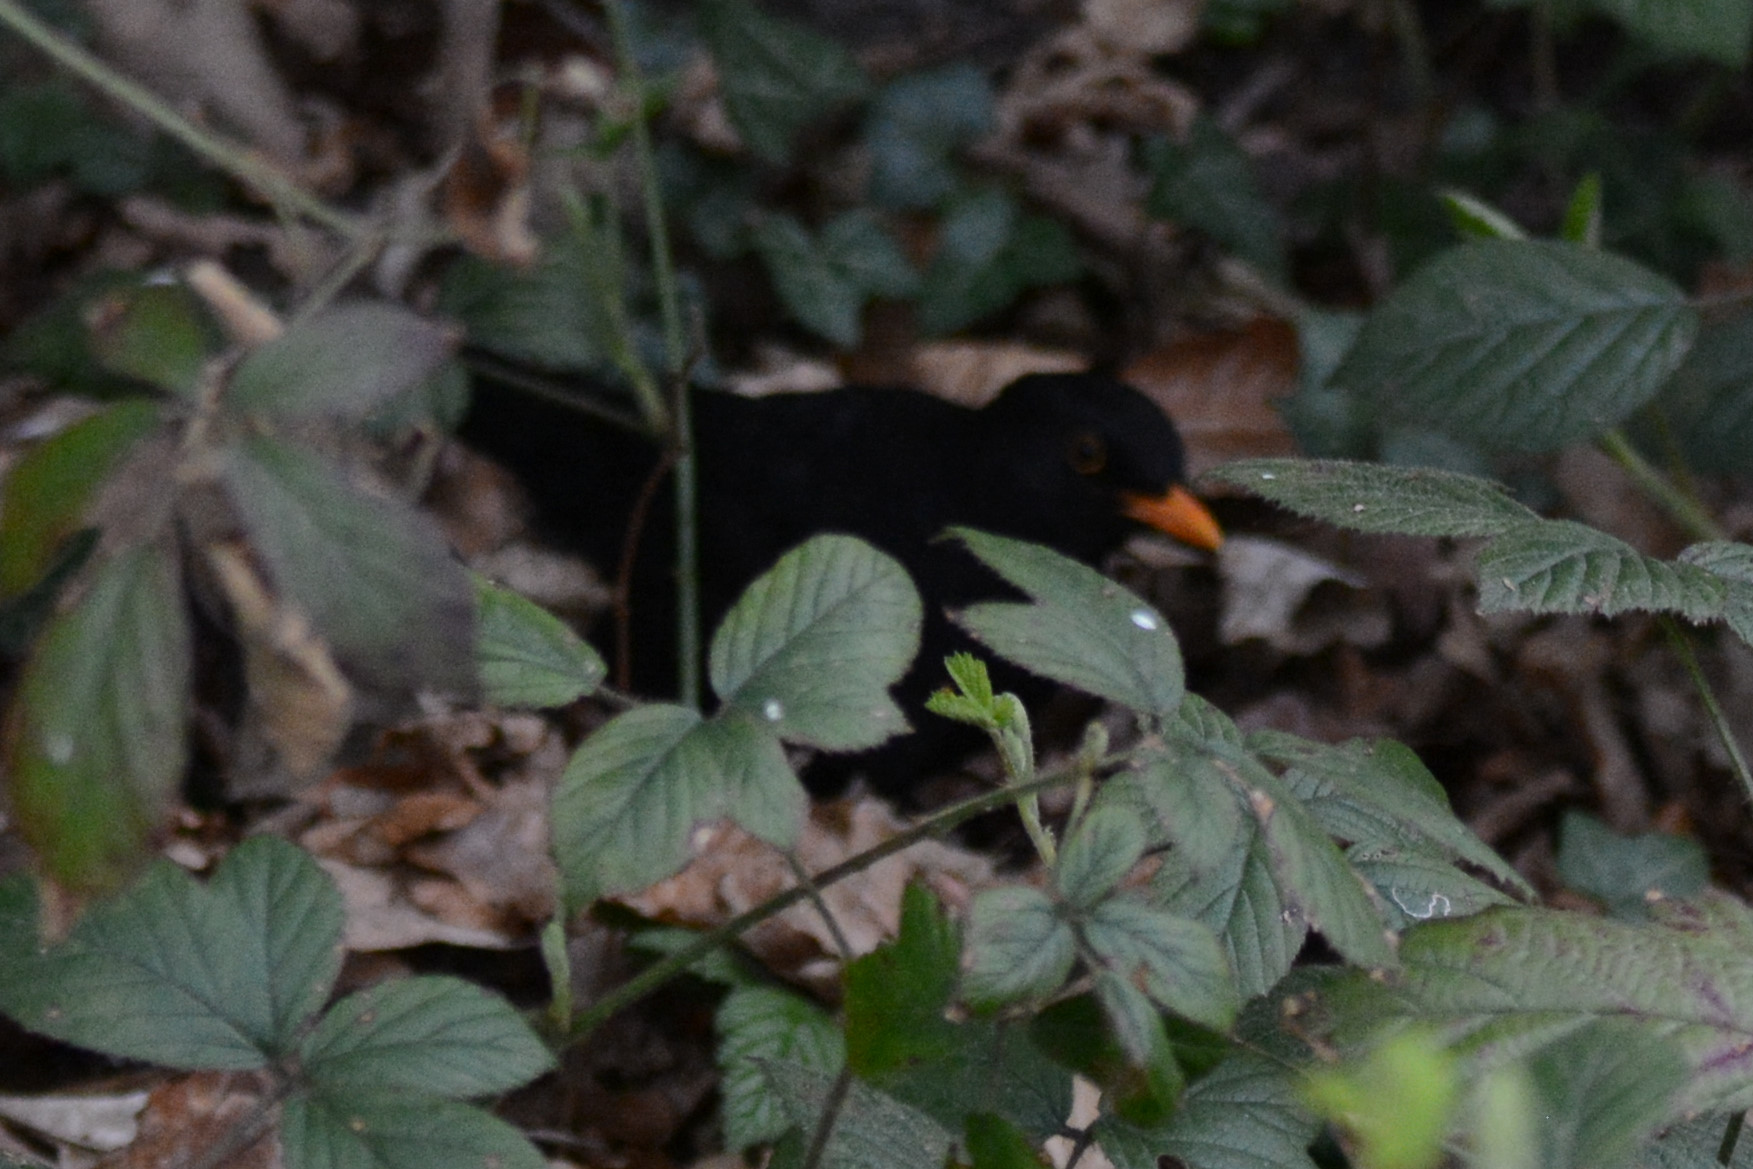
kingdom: Animalia
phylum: Chordata
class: Aves
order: Passeriformes
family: Turdidae
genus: Turdus
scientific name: Turdus merula
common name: Common blackbird
